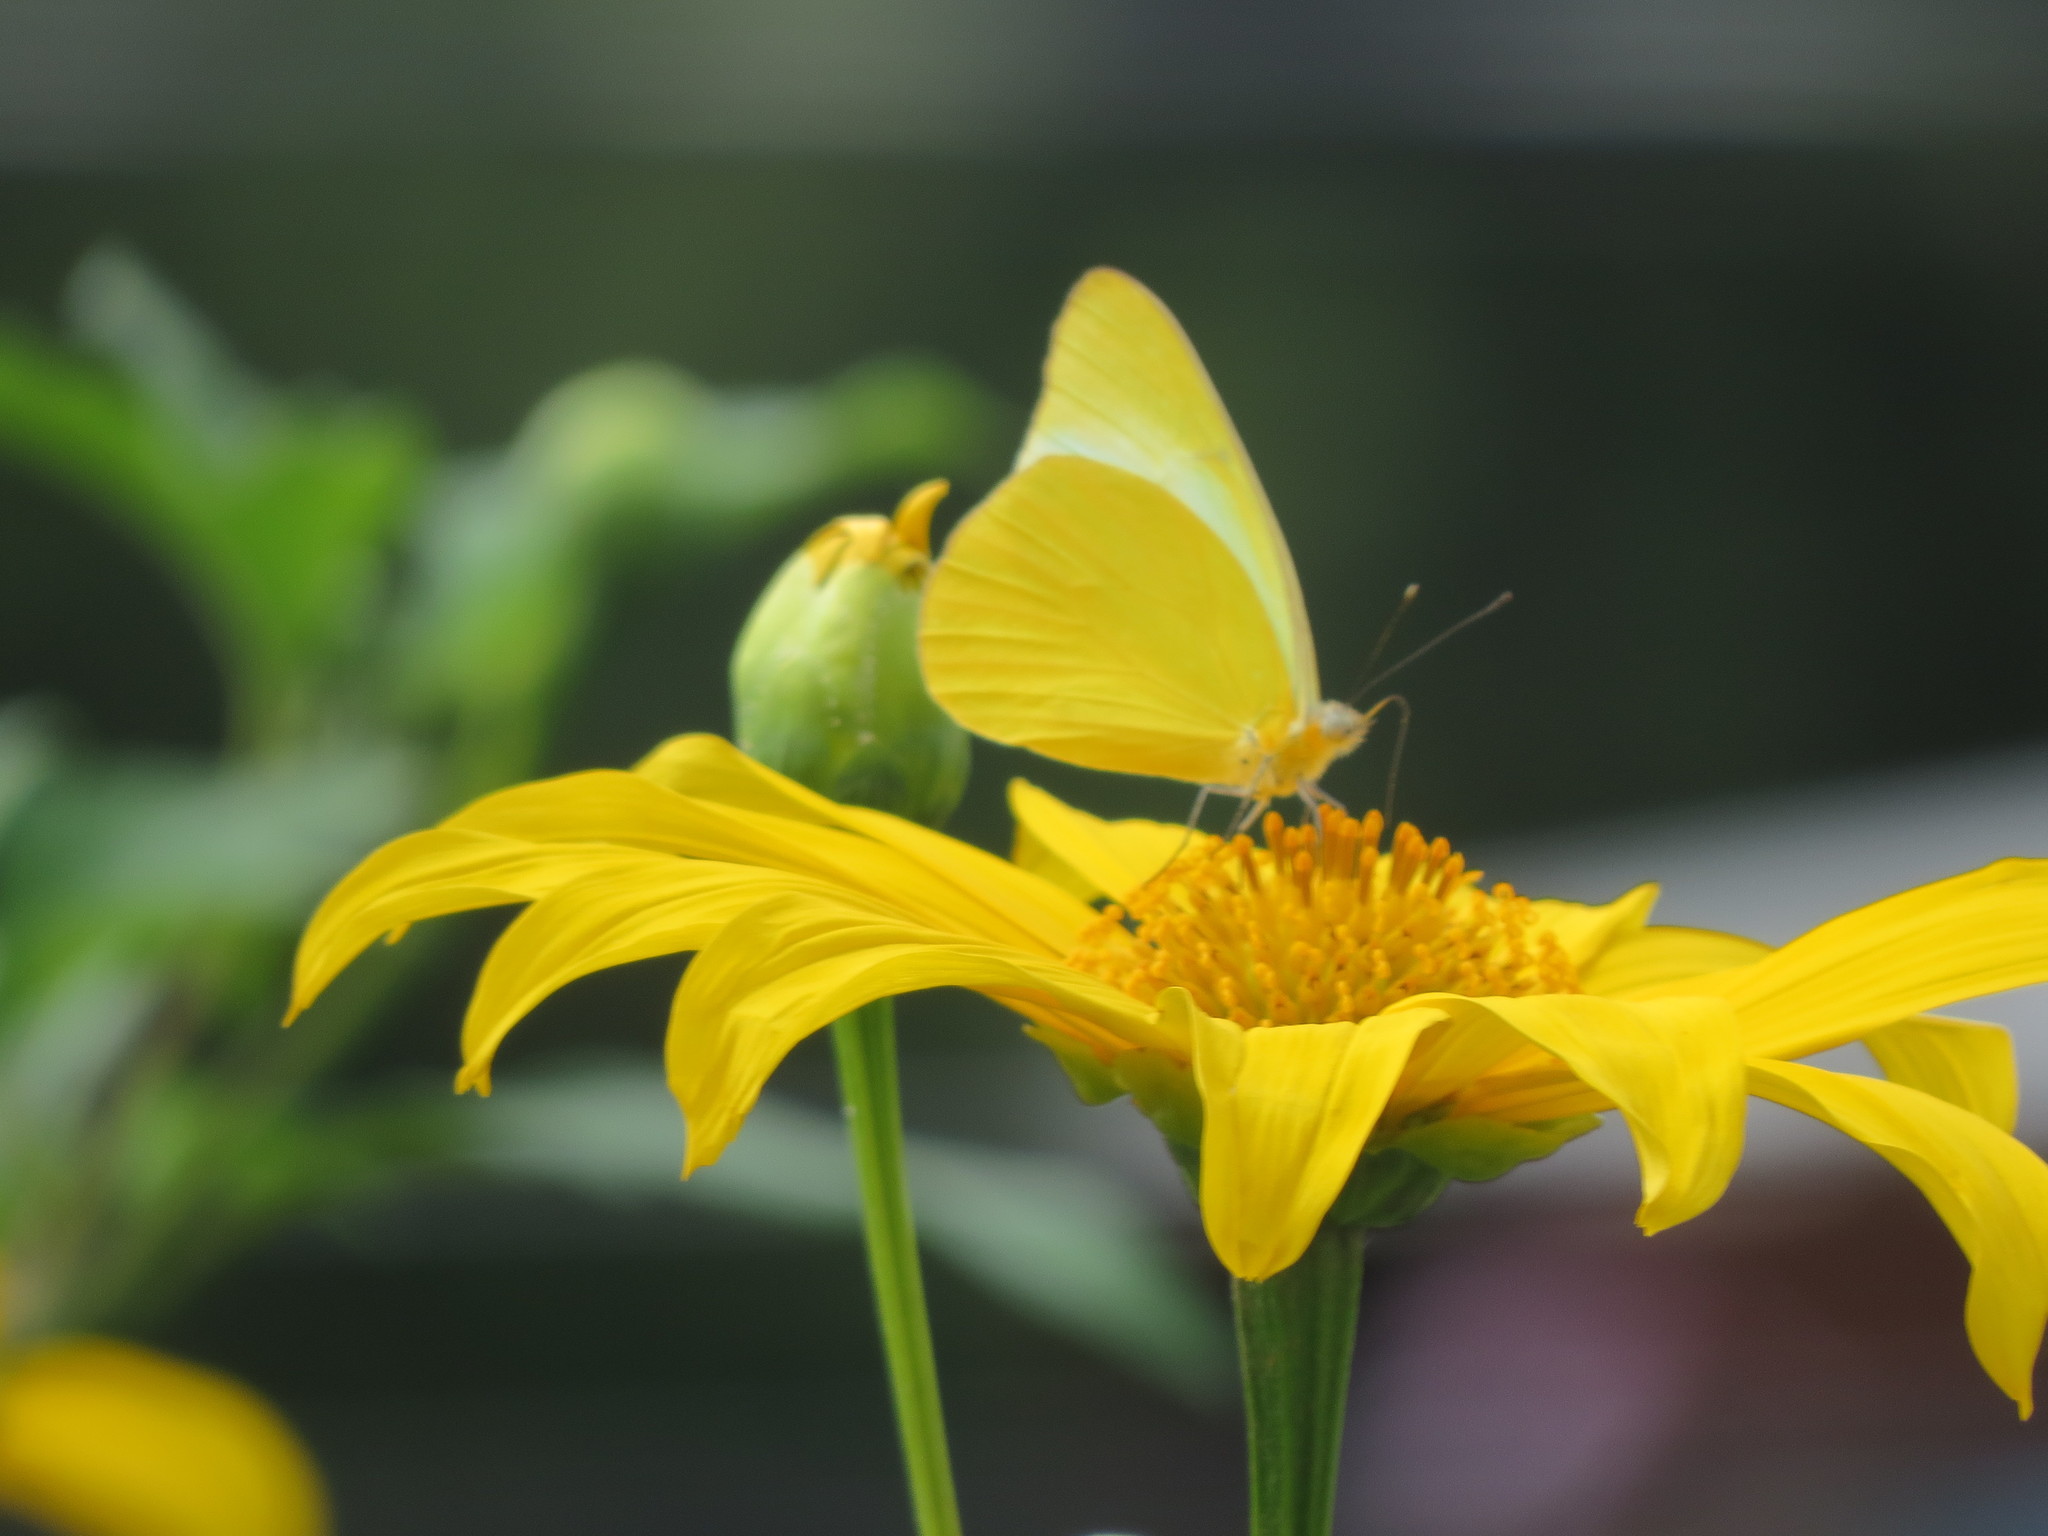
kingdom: Animalia
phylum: Arthropoda
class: Insecta
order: Lepidoptera
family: Pieridae
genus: Melete
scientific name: Melete lycimnia
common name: Common melwhite
